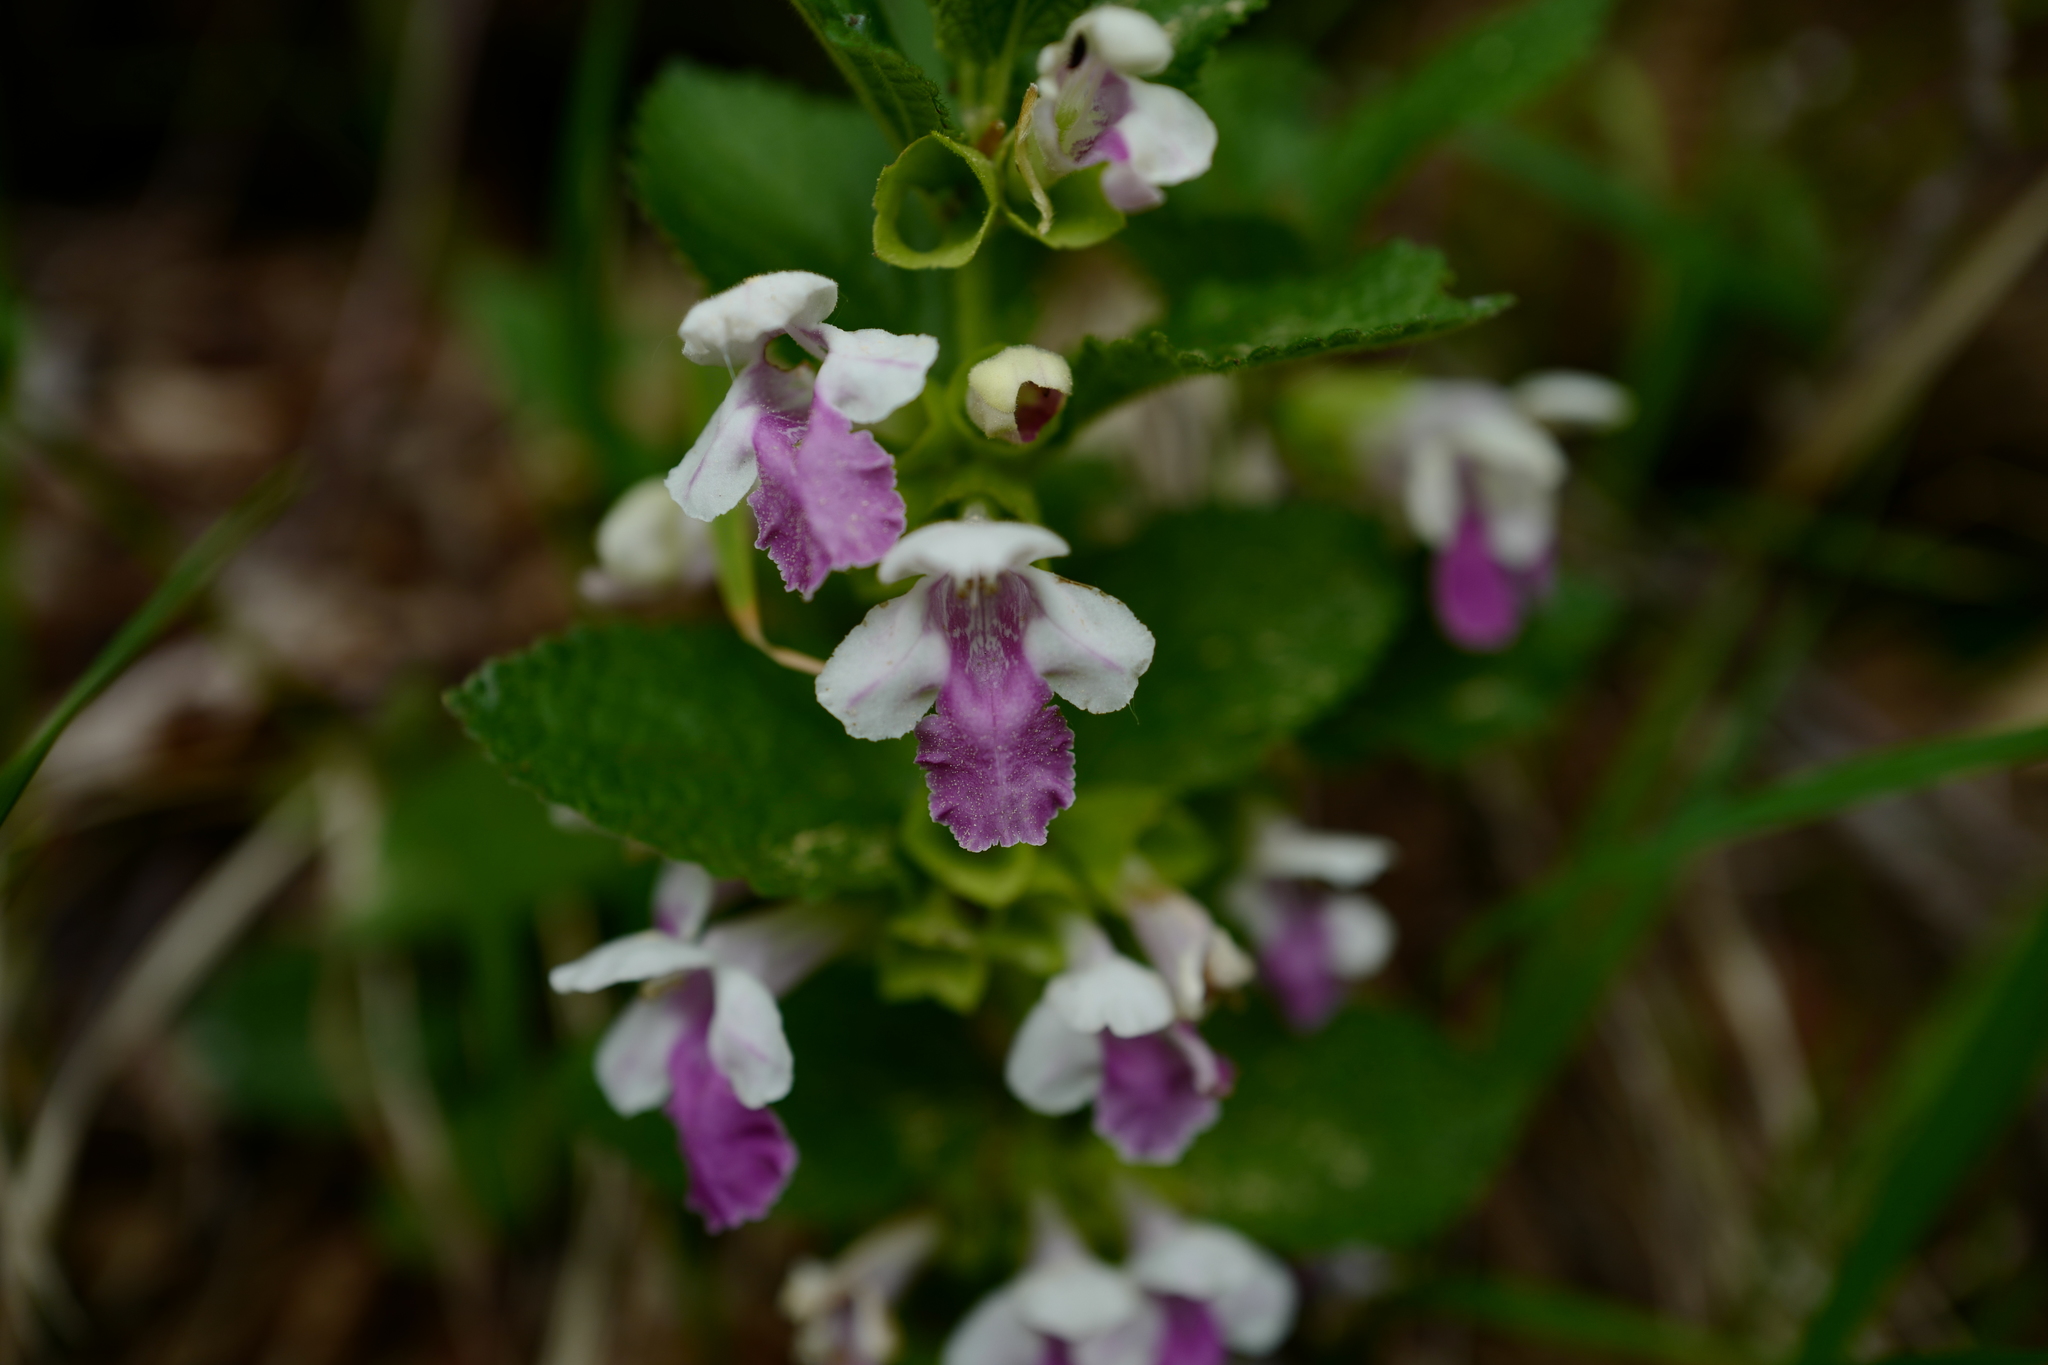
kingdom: Plantae
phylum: Tracheophyta
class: Magnoliopsida
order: Lamiales
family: Lamiaceae
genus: Melittis
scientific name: Melittis melissophyllum
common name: Bastard balm
